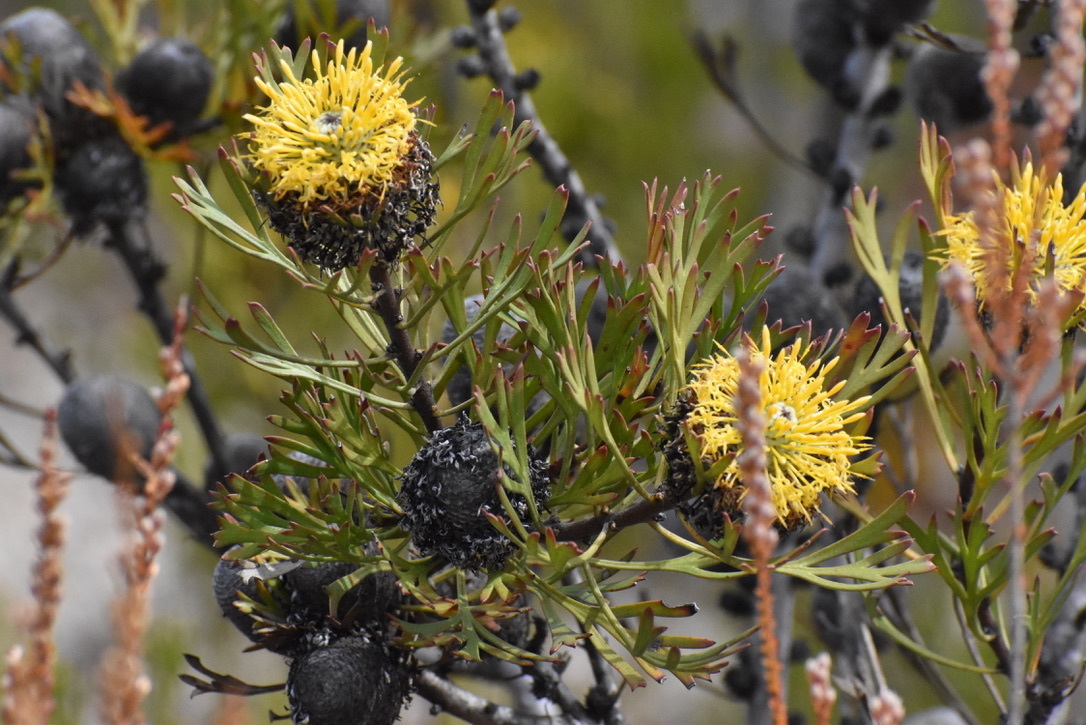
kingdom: Plantae
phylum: Tracheophyta
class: Magnoliopsida
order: Proteales
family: Proteaceae
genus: Isopogon
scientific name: Isopogon anemonifolius
